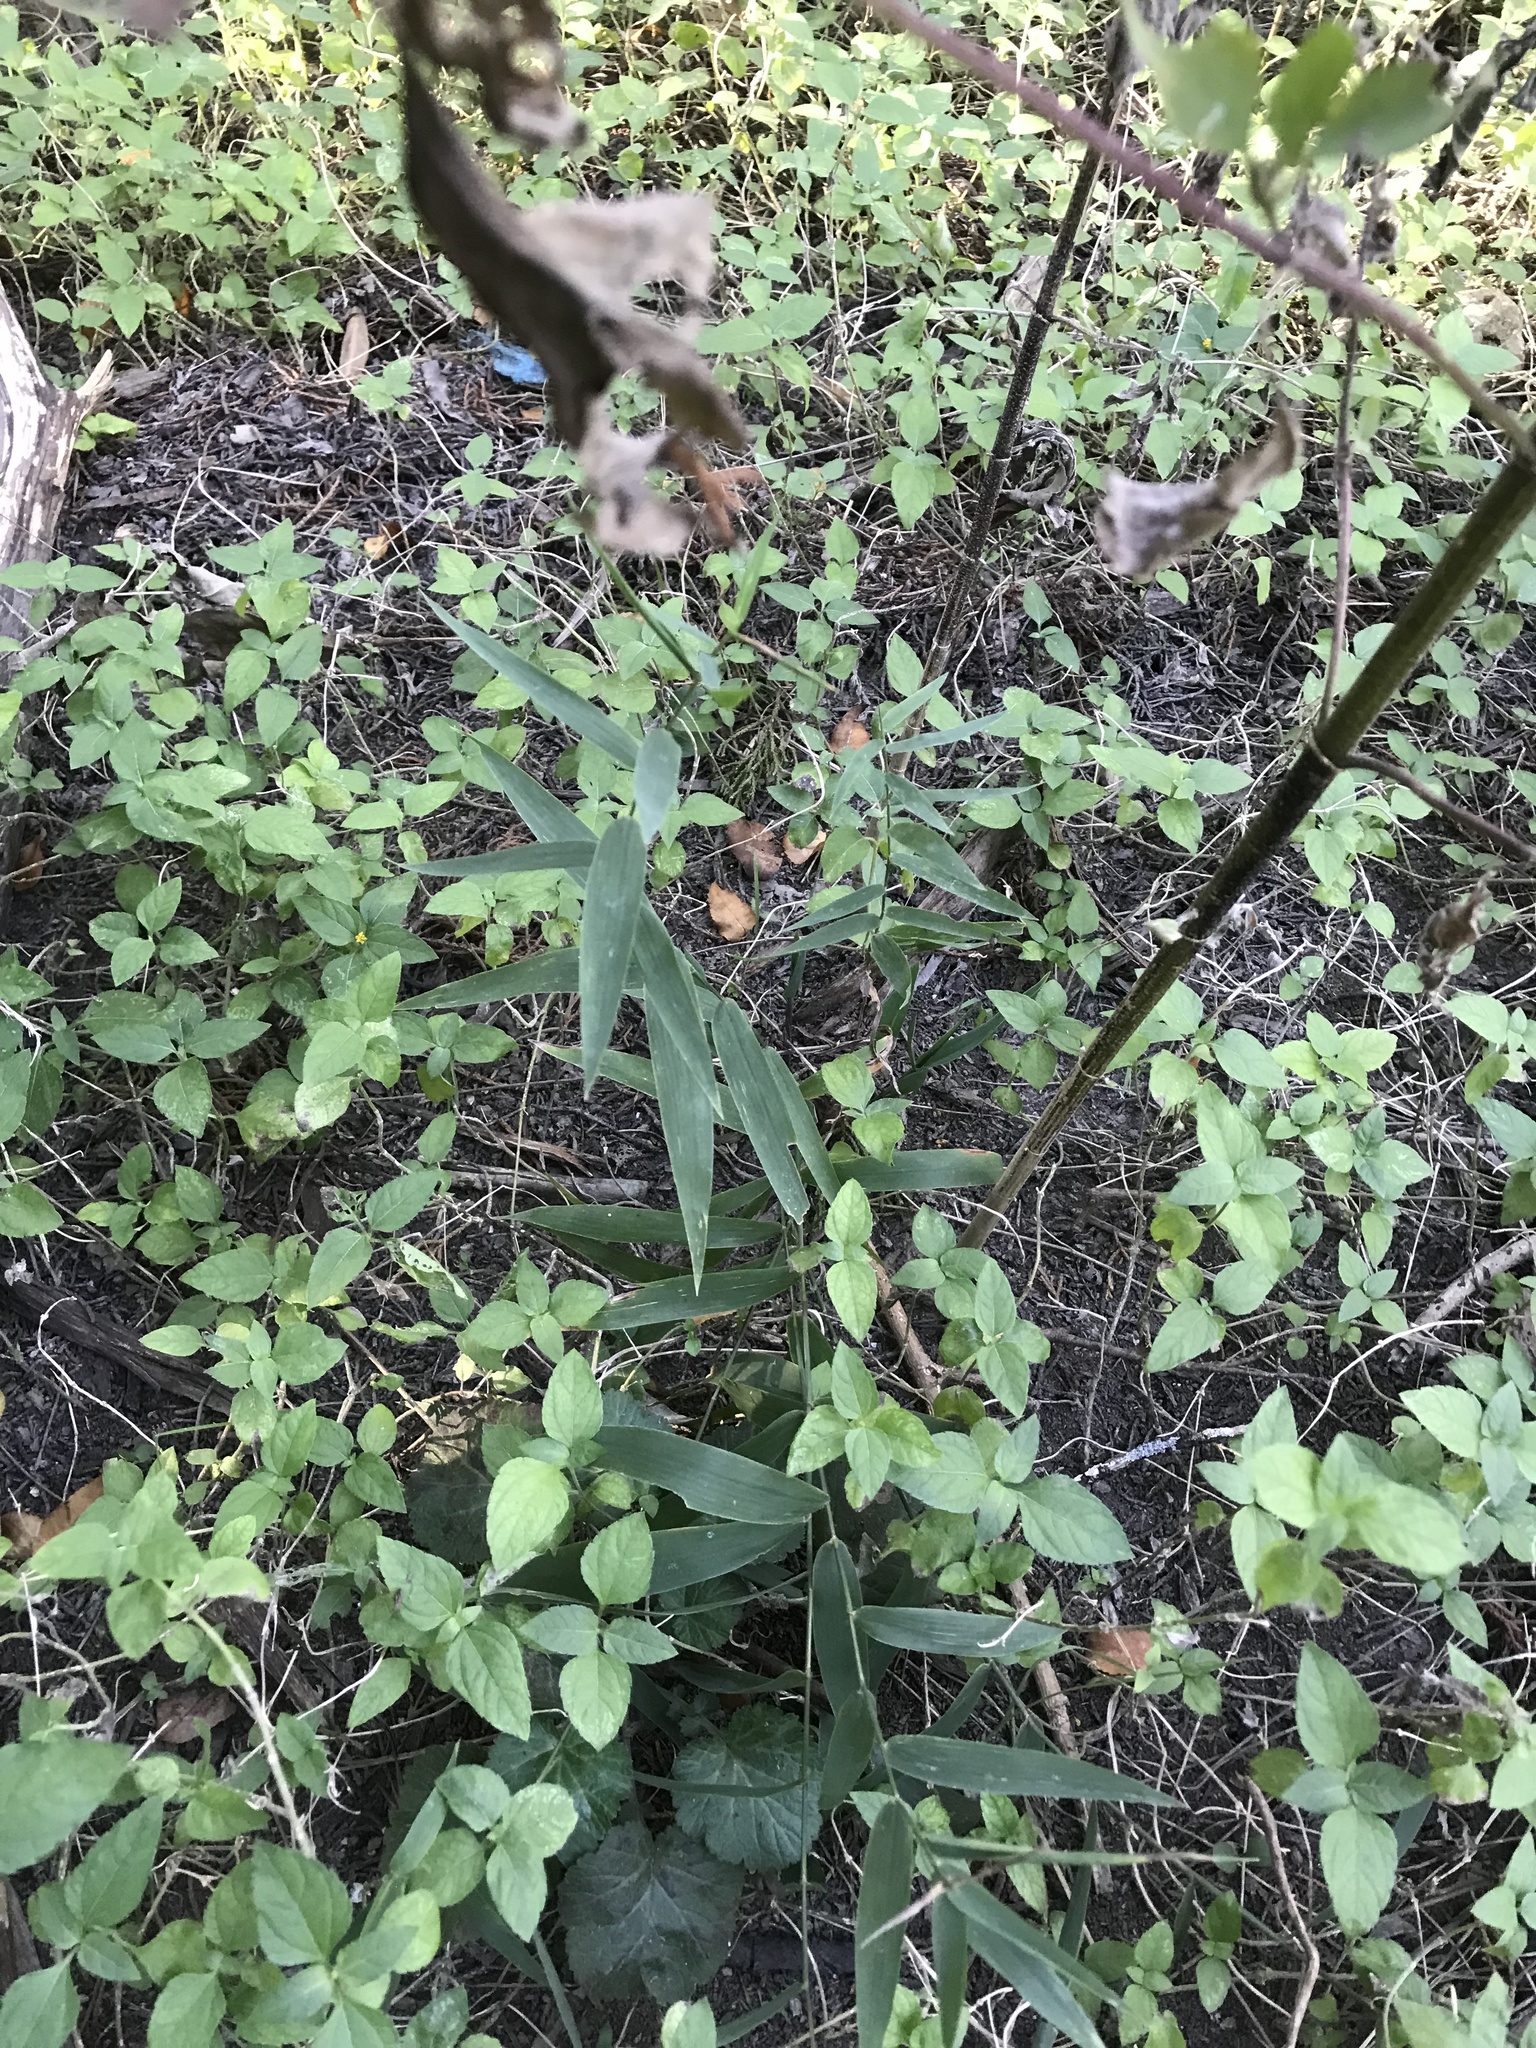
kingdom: Plantae
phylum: Tracheophyta
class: Liliopsida
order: Poales
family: Poaceae
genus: Chasmanthium
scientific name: Chasmanthium latifolium
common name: Broad-leaved chasmanthium
